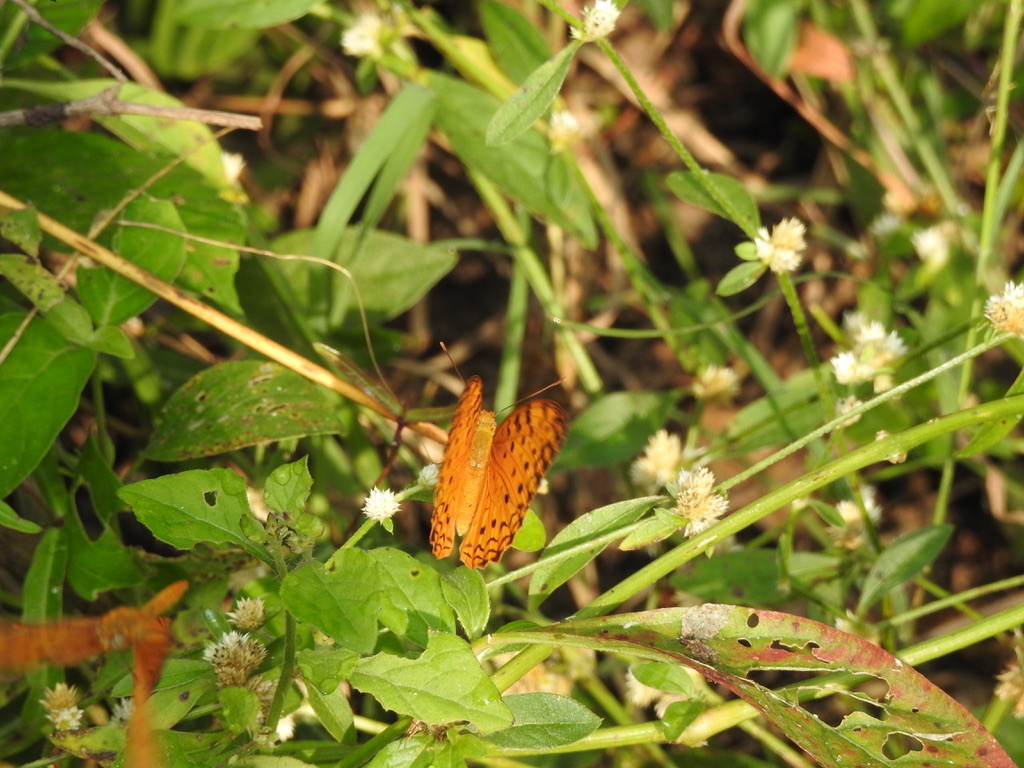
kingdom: Animalia
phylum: Arthropoda
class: Insecta
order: Lepidoptera
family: Nymphalidae
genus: Phalanta
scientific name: Phalanta phalantha
